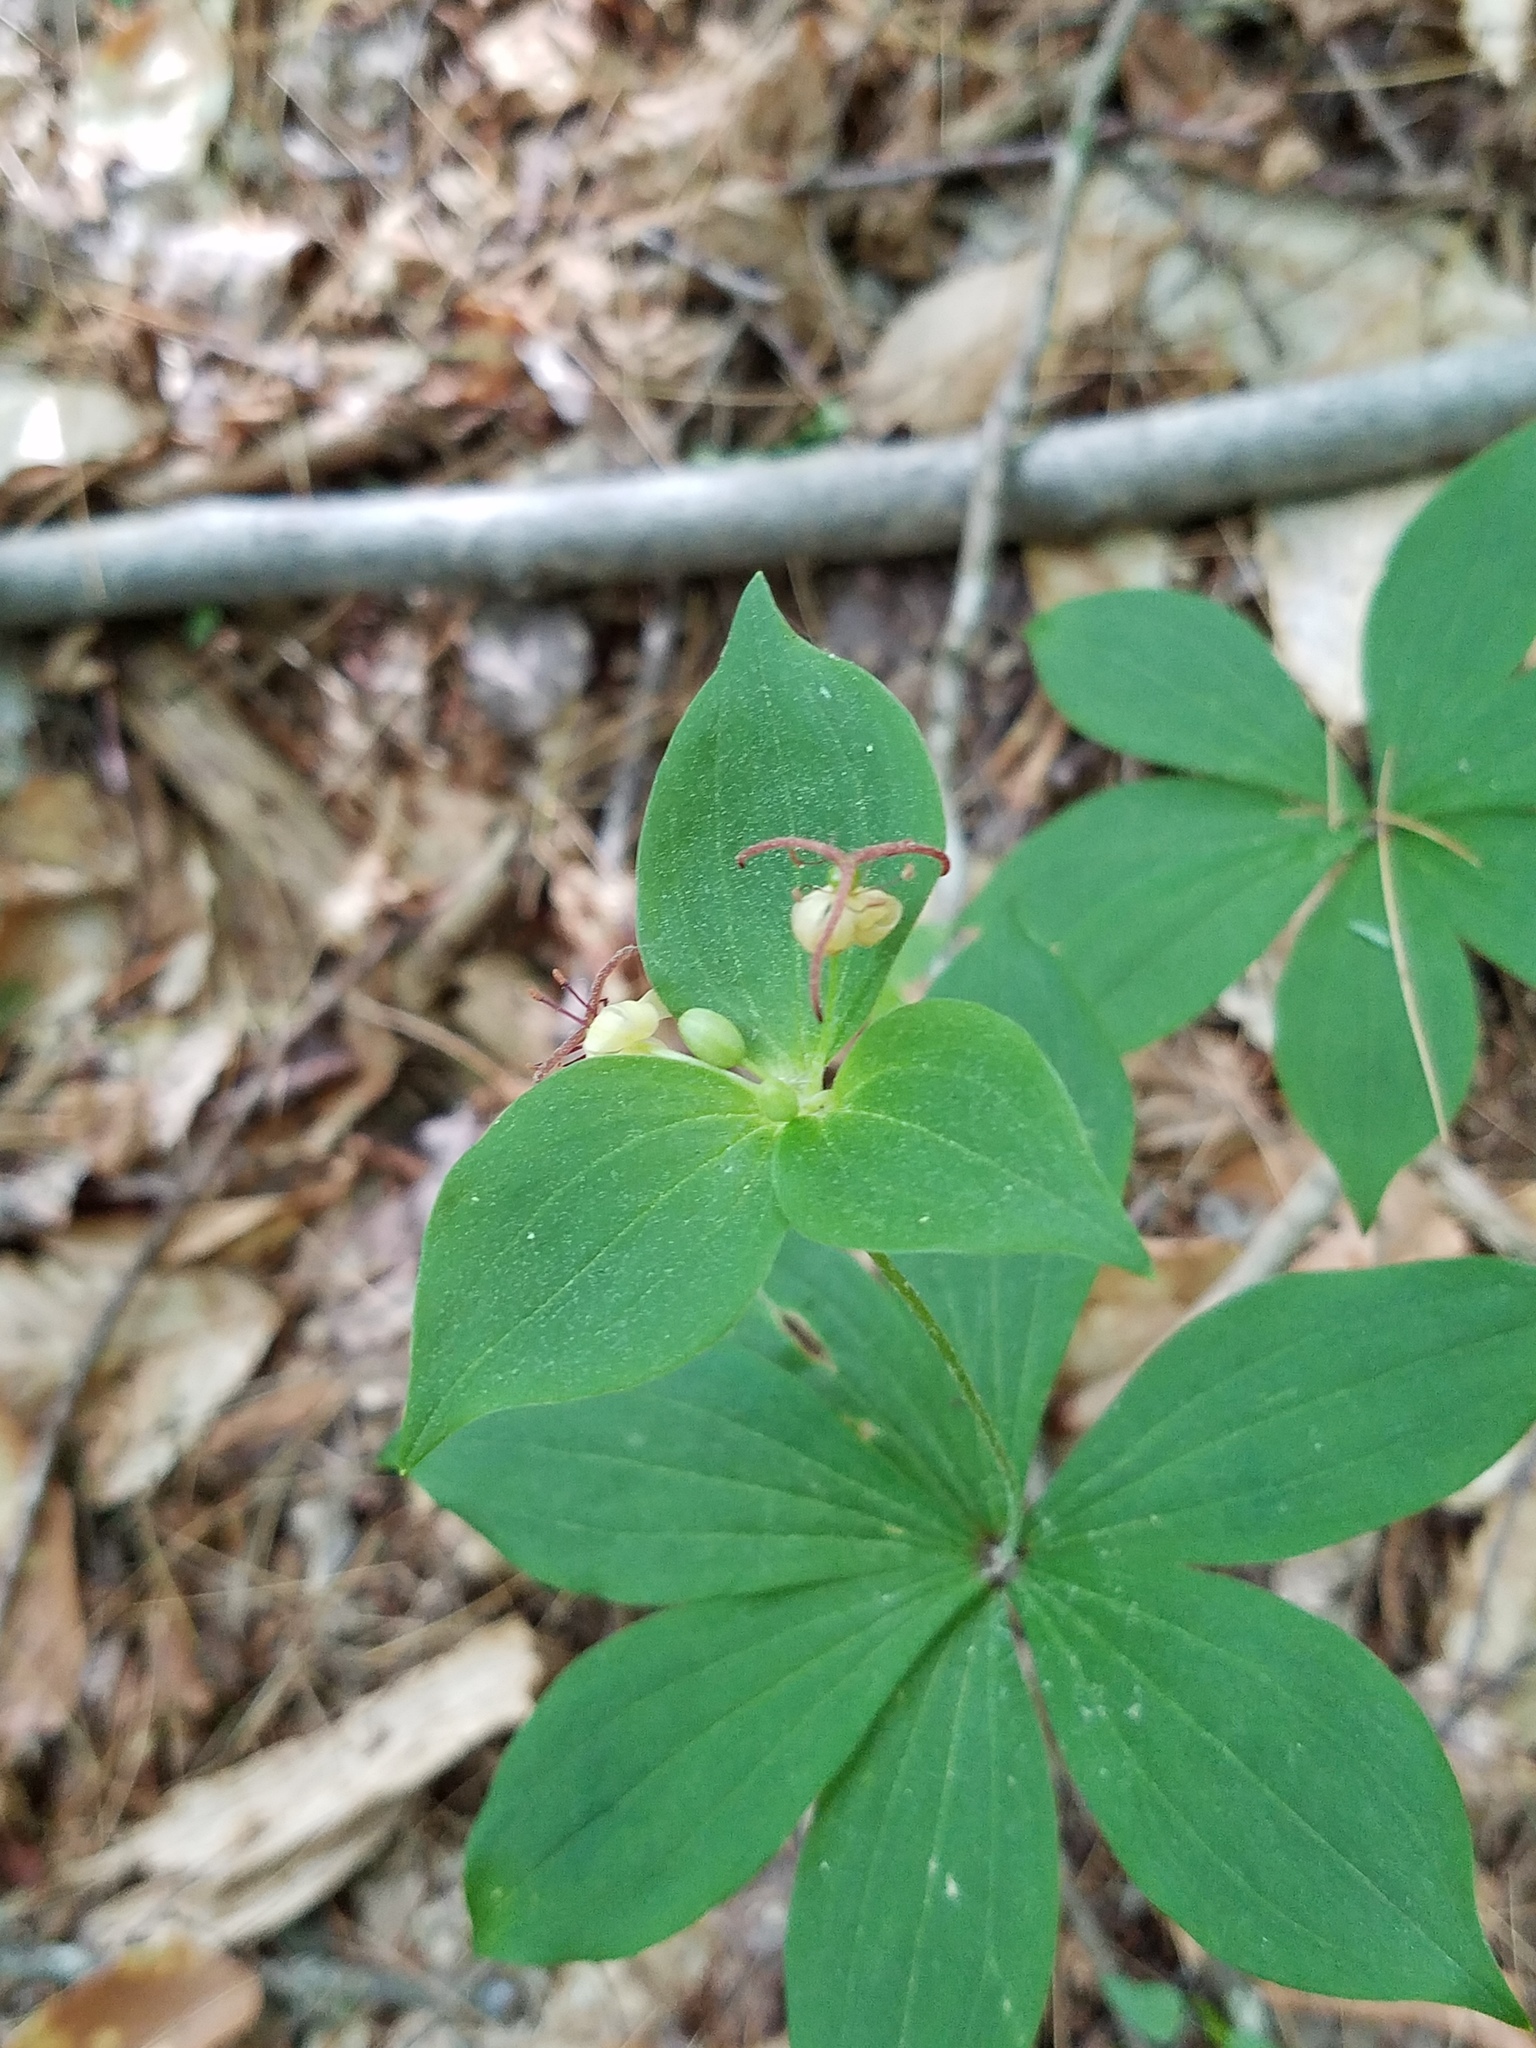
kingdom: Plantae
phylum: Tracheophyta
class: Liliopsida
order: Liliales
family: Liliaceae
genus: Medeola
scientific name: Medeola virginiana
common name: Indian cucumber-root
